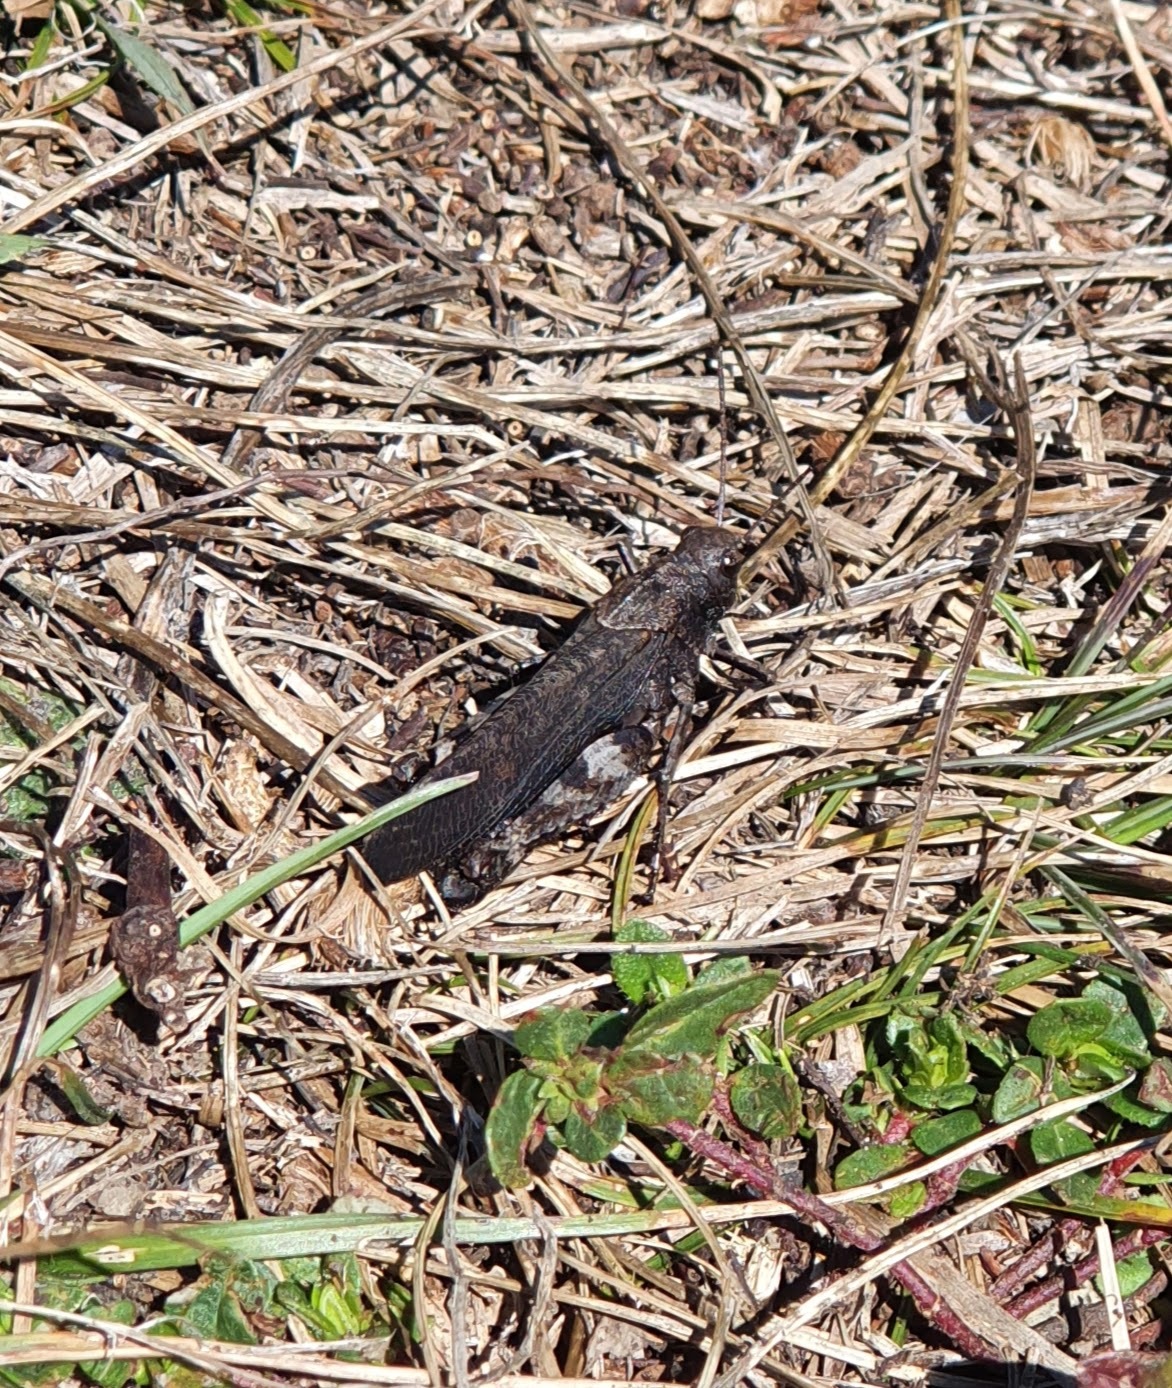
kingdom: Animalia
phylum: Arthropoda
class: Insecta
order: Orthoptera
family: Acrididae
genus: Psophus
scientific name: Psophus stridulus
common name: Rattle grasshopper
